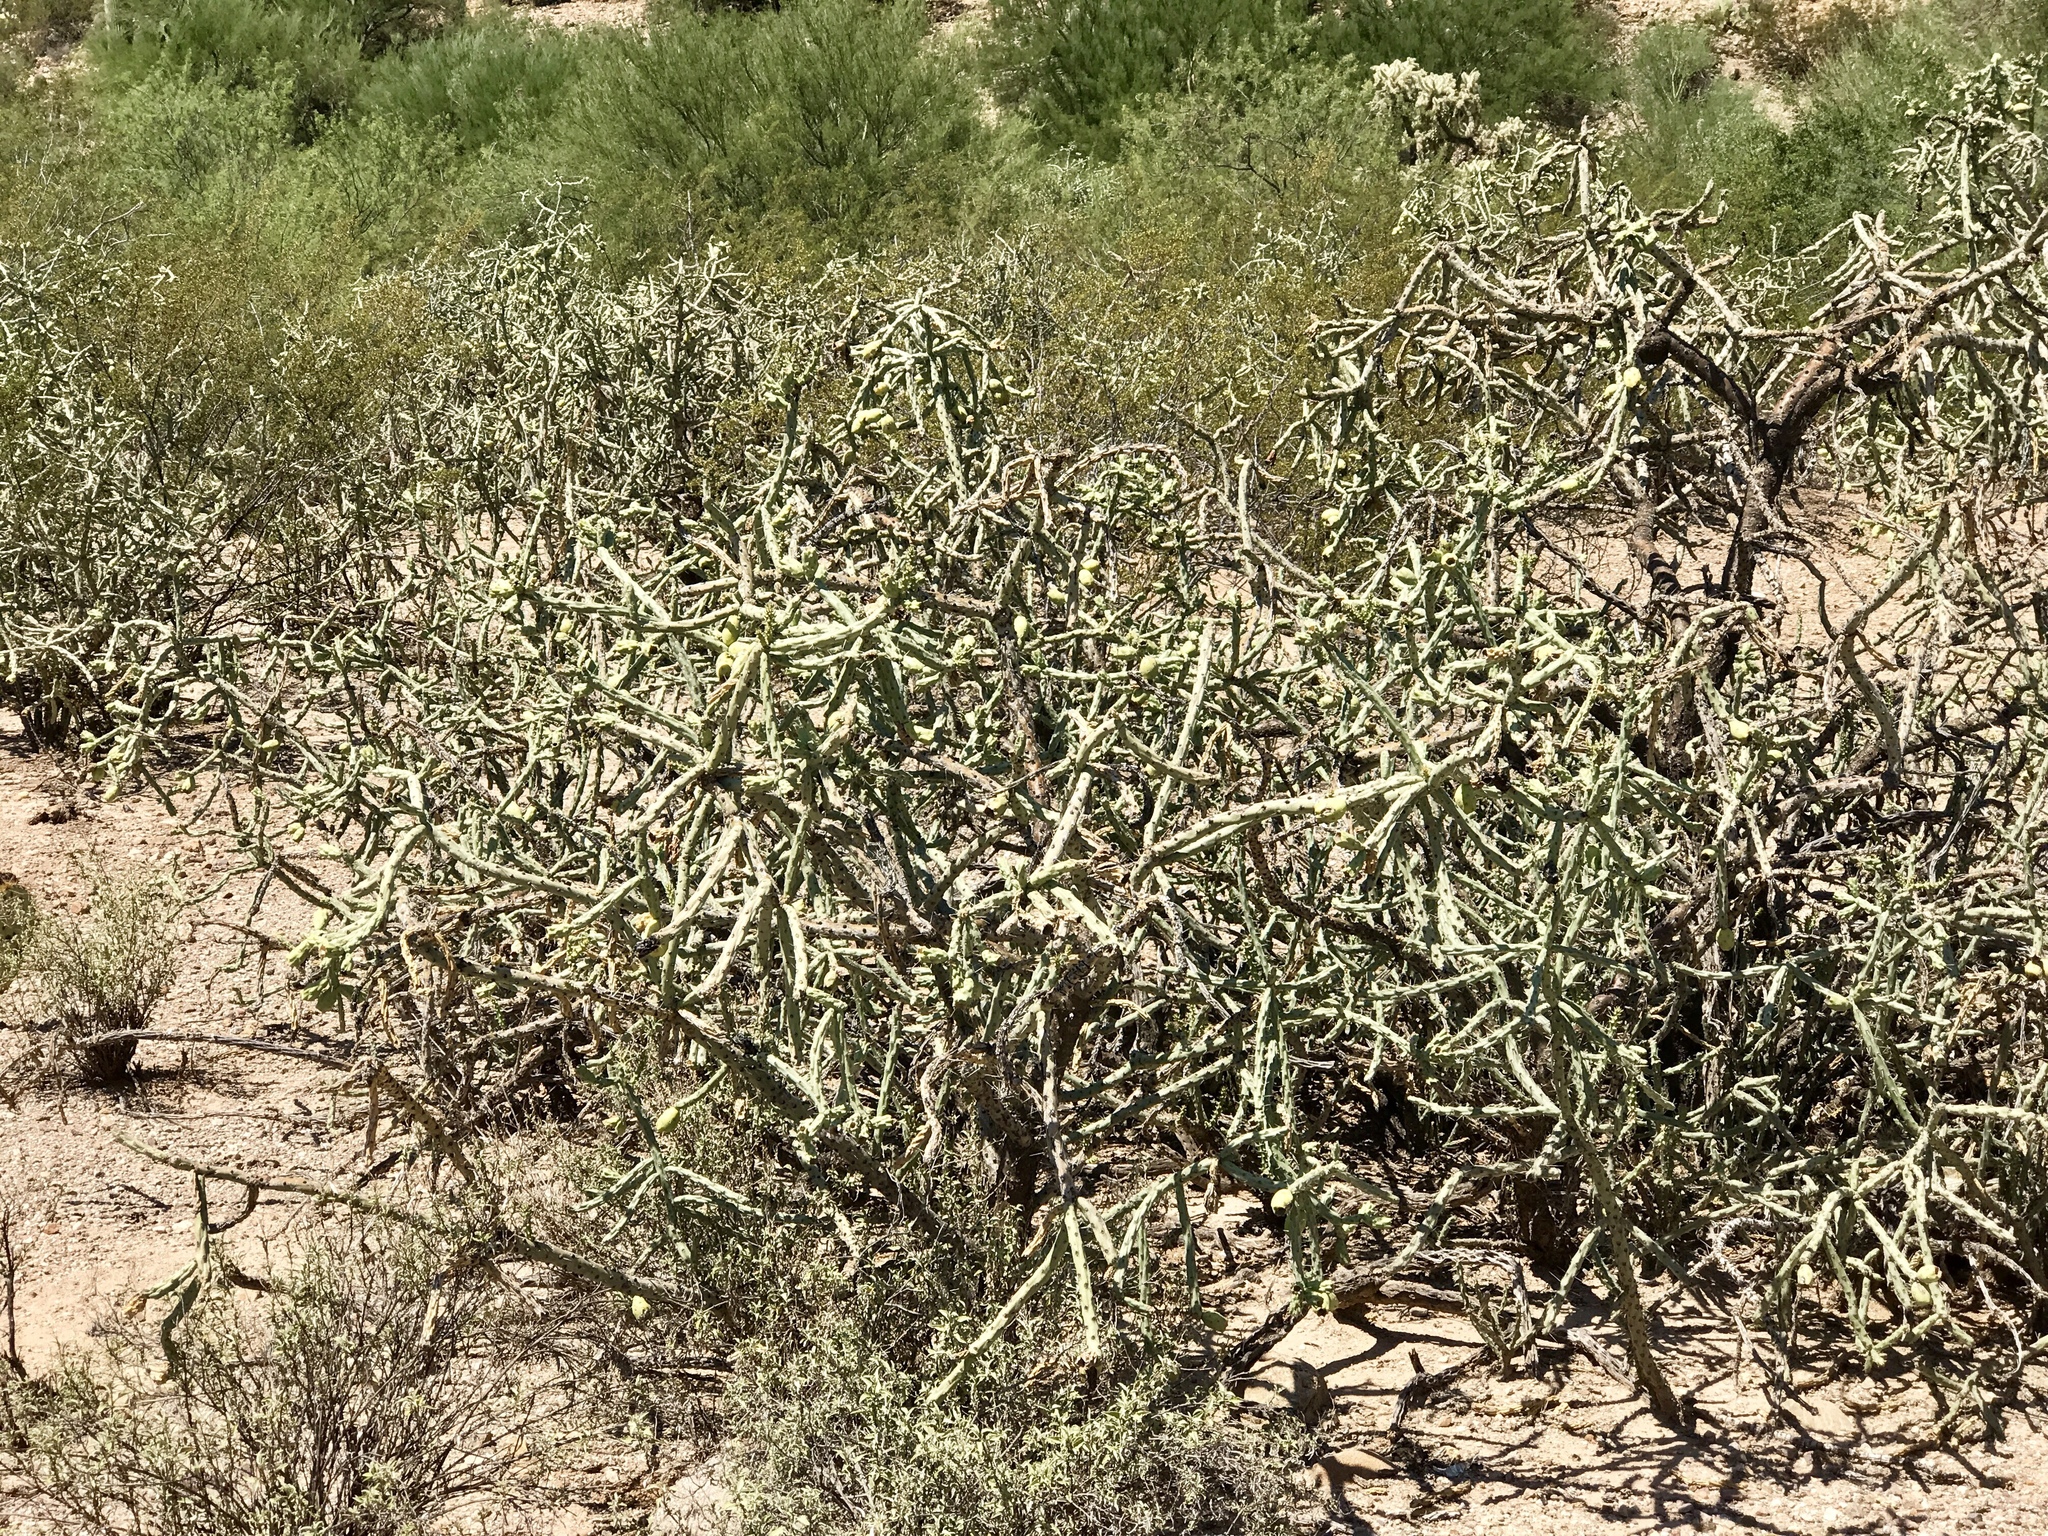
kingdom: Plantae
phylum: Tracheophyta
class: Magnoliopsida
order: Caryophyllales
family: Cactaceae
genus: Cylindropuntia
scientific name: Cylindropuntia arbuscula
